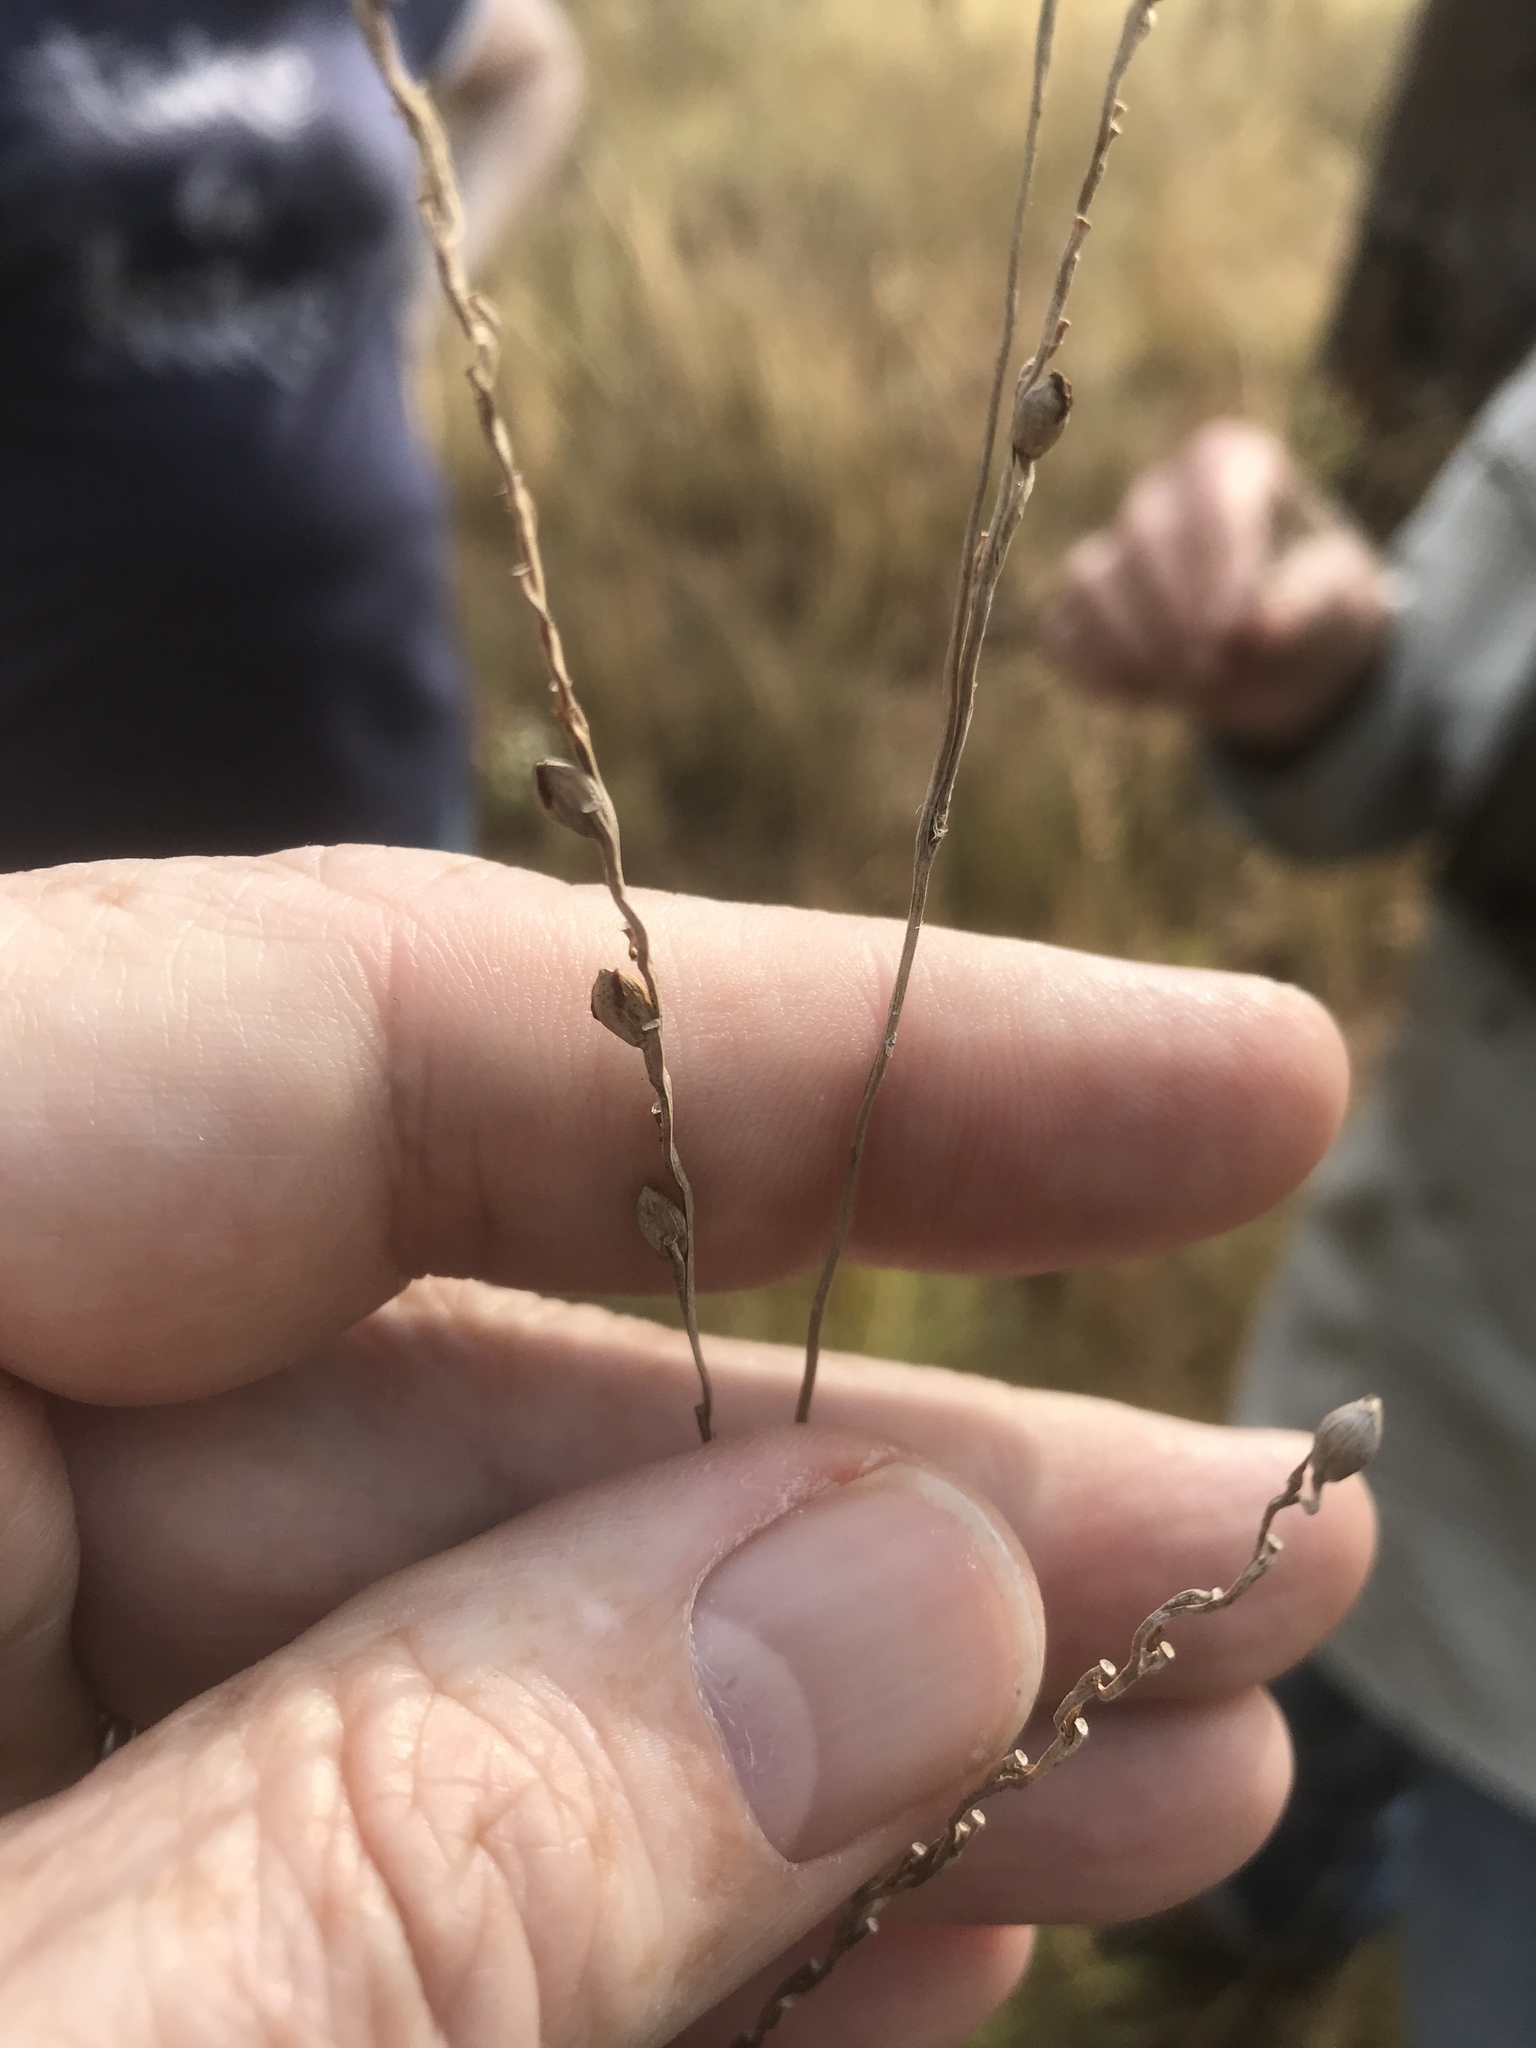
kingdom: Plantae
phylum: Tracheophyta
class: Liliopsida
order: Poales
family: Poaceae
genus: Paspalum
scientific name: Paspalum bifidum
